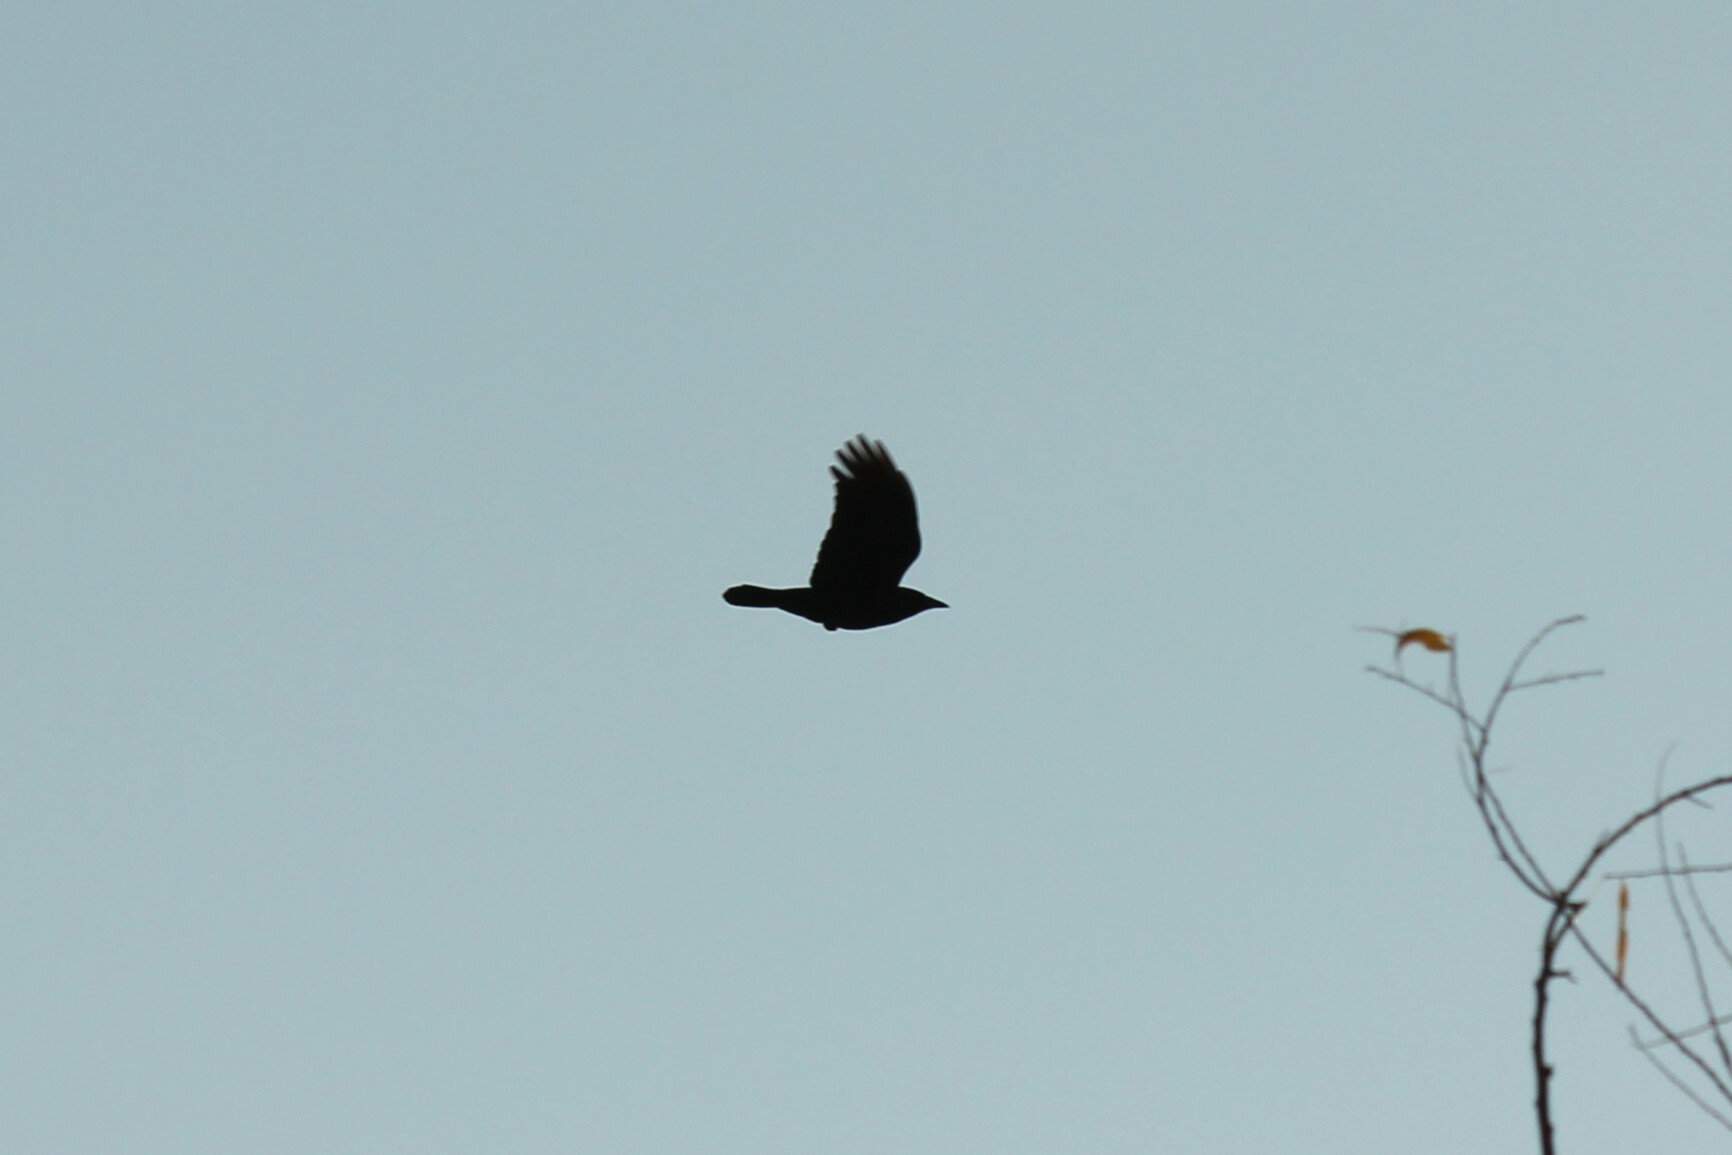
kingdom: Animalia
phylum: Chordata
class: Aves
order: Passeriformes
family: Corvidae
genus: Corvus
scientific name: Corvus brachyrhynchos
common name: American crow
